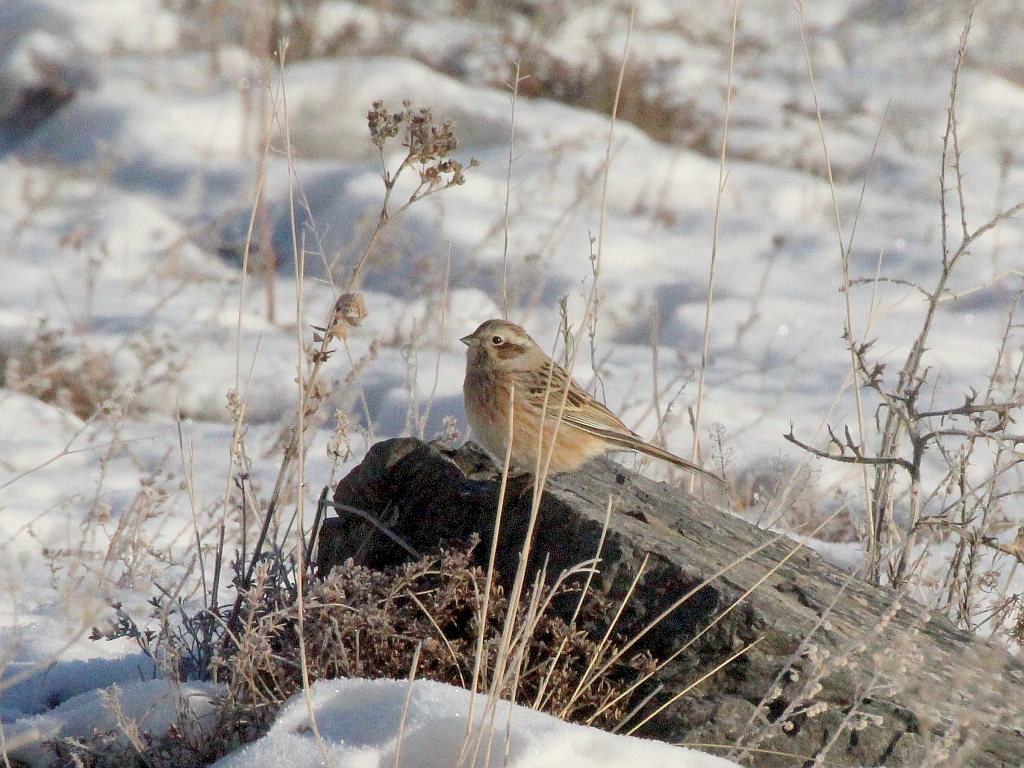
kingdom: Animalia
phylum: Chordata
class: Aves
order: Passeriformes
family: Emberizidae
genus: Emberiza
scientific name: Emberiza cioides
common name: Meadow bunting
